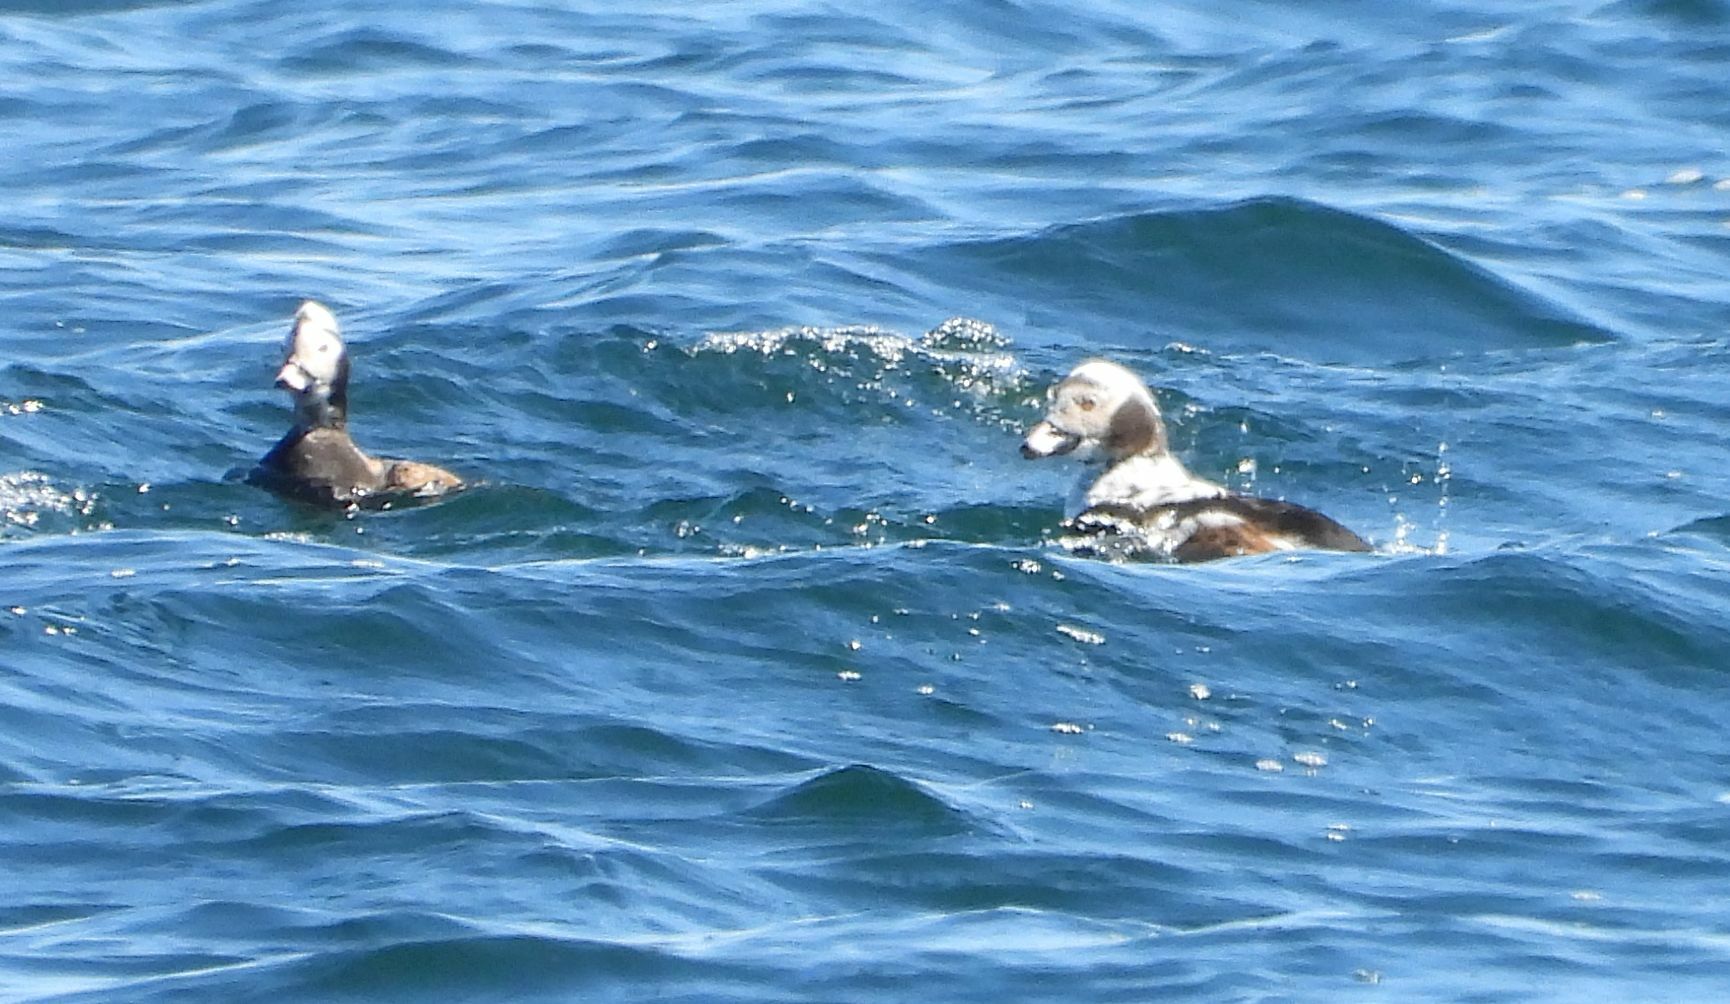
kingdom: Animalia
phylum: Chordata
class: Aves
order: Anseriformes
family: Anatidae
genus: Clangula
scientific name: Clangula hyemalis
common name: Long-tailed duck
